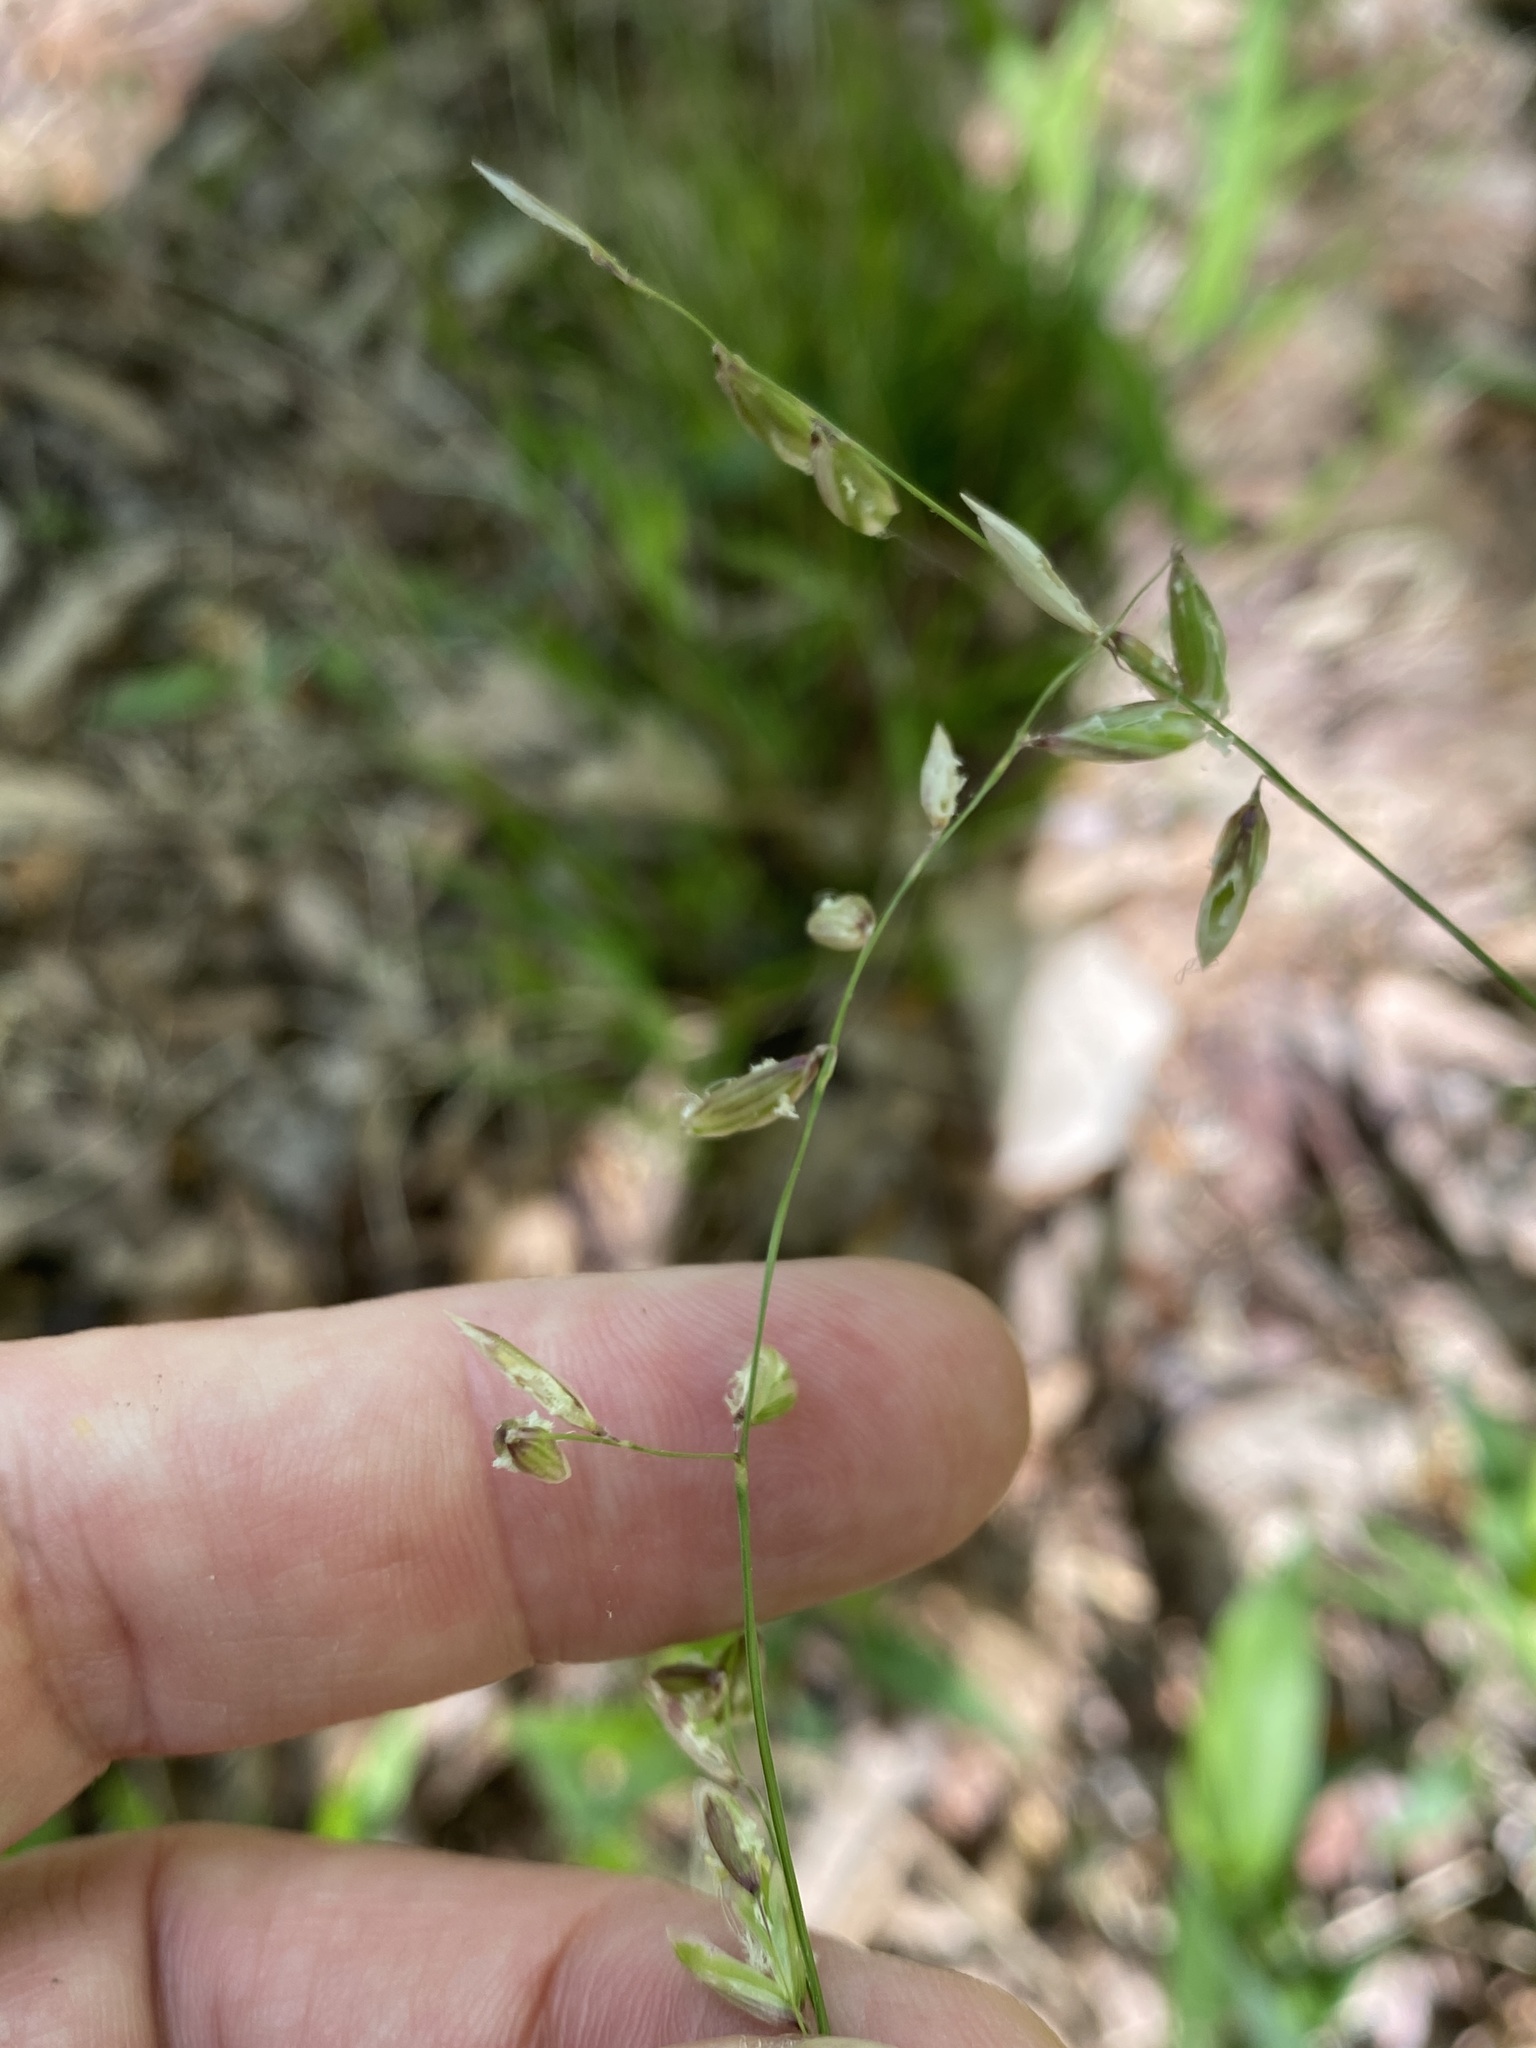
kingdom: Plantae
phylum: Tracheophyta
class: Liliopsida
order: Poales
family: Poaceae
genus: Melica
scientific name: Melica mutica
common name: Two-flower melic
